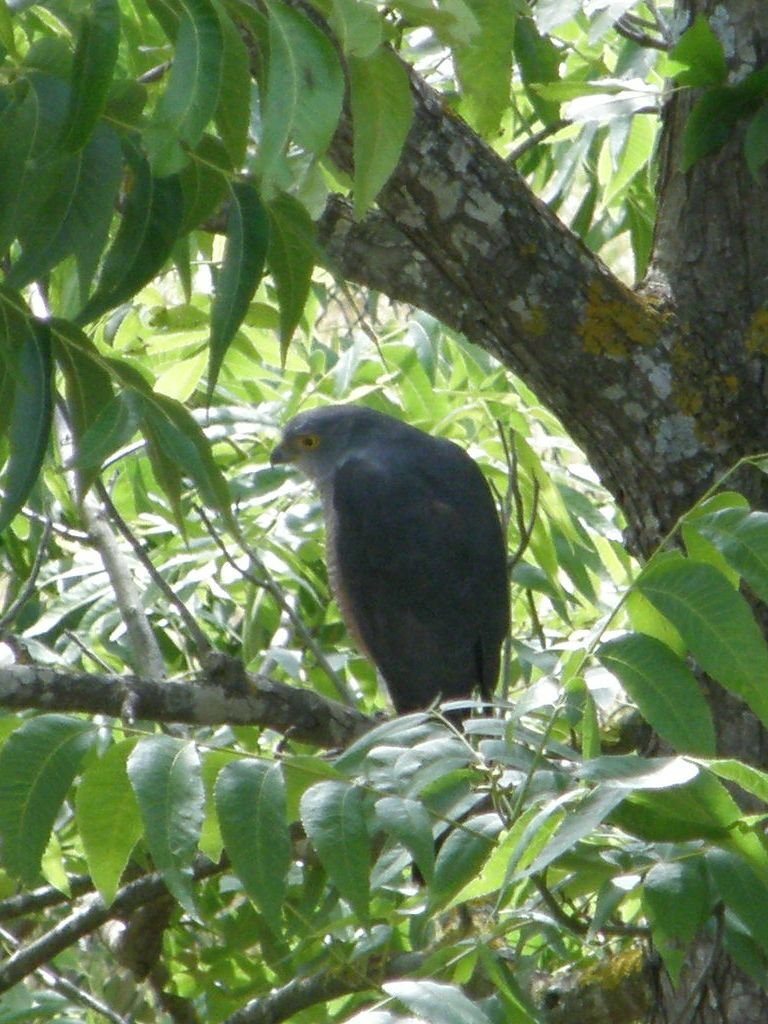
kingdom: Animalia
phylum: Chordata
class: Aves
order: Accipitriformes
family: Accipitridae
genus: Accipiter
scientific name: Accipiter tachiro
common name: African goshawk
